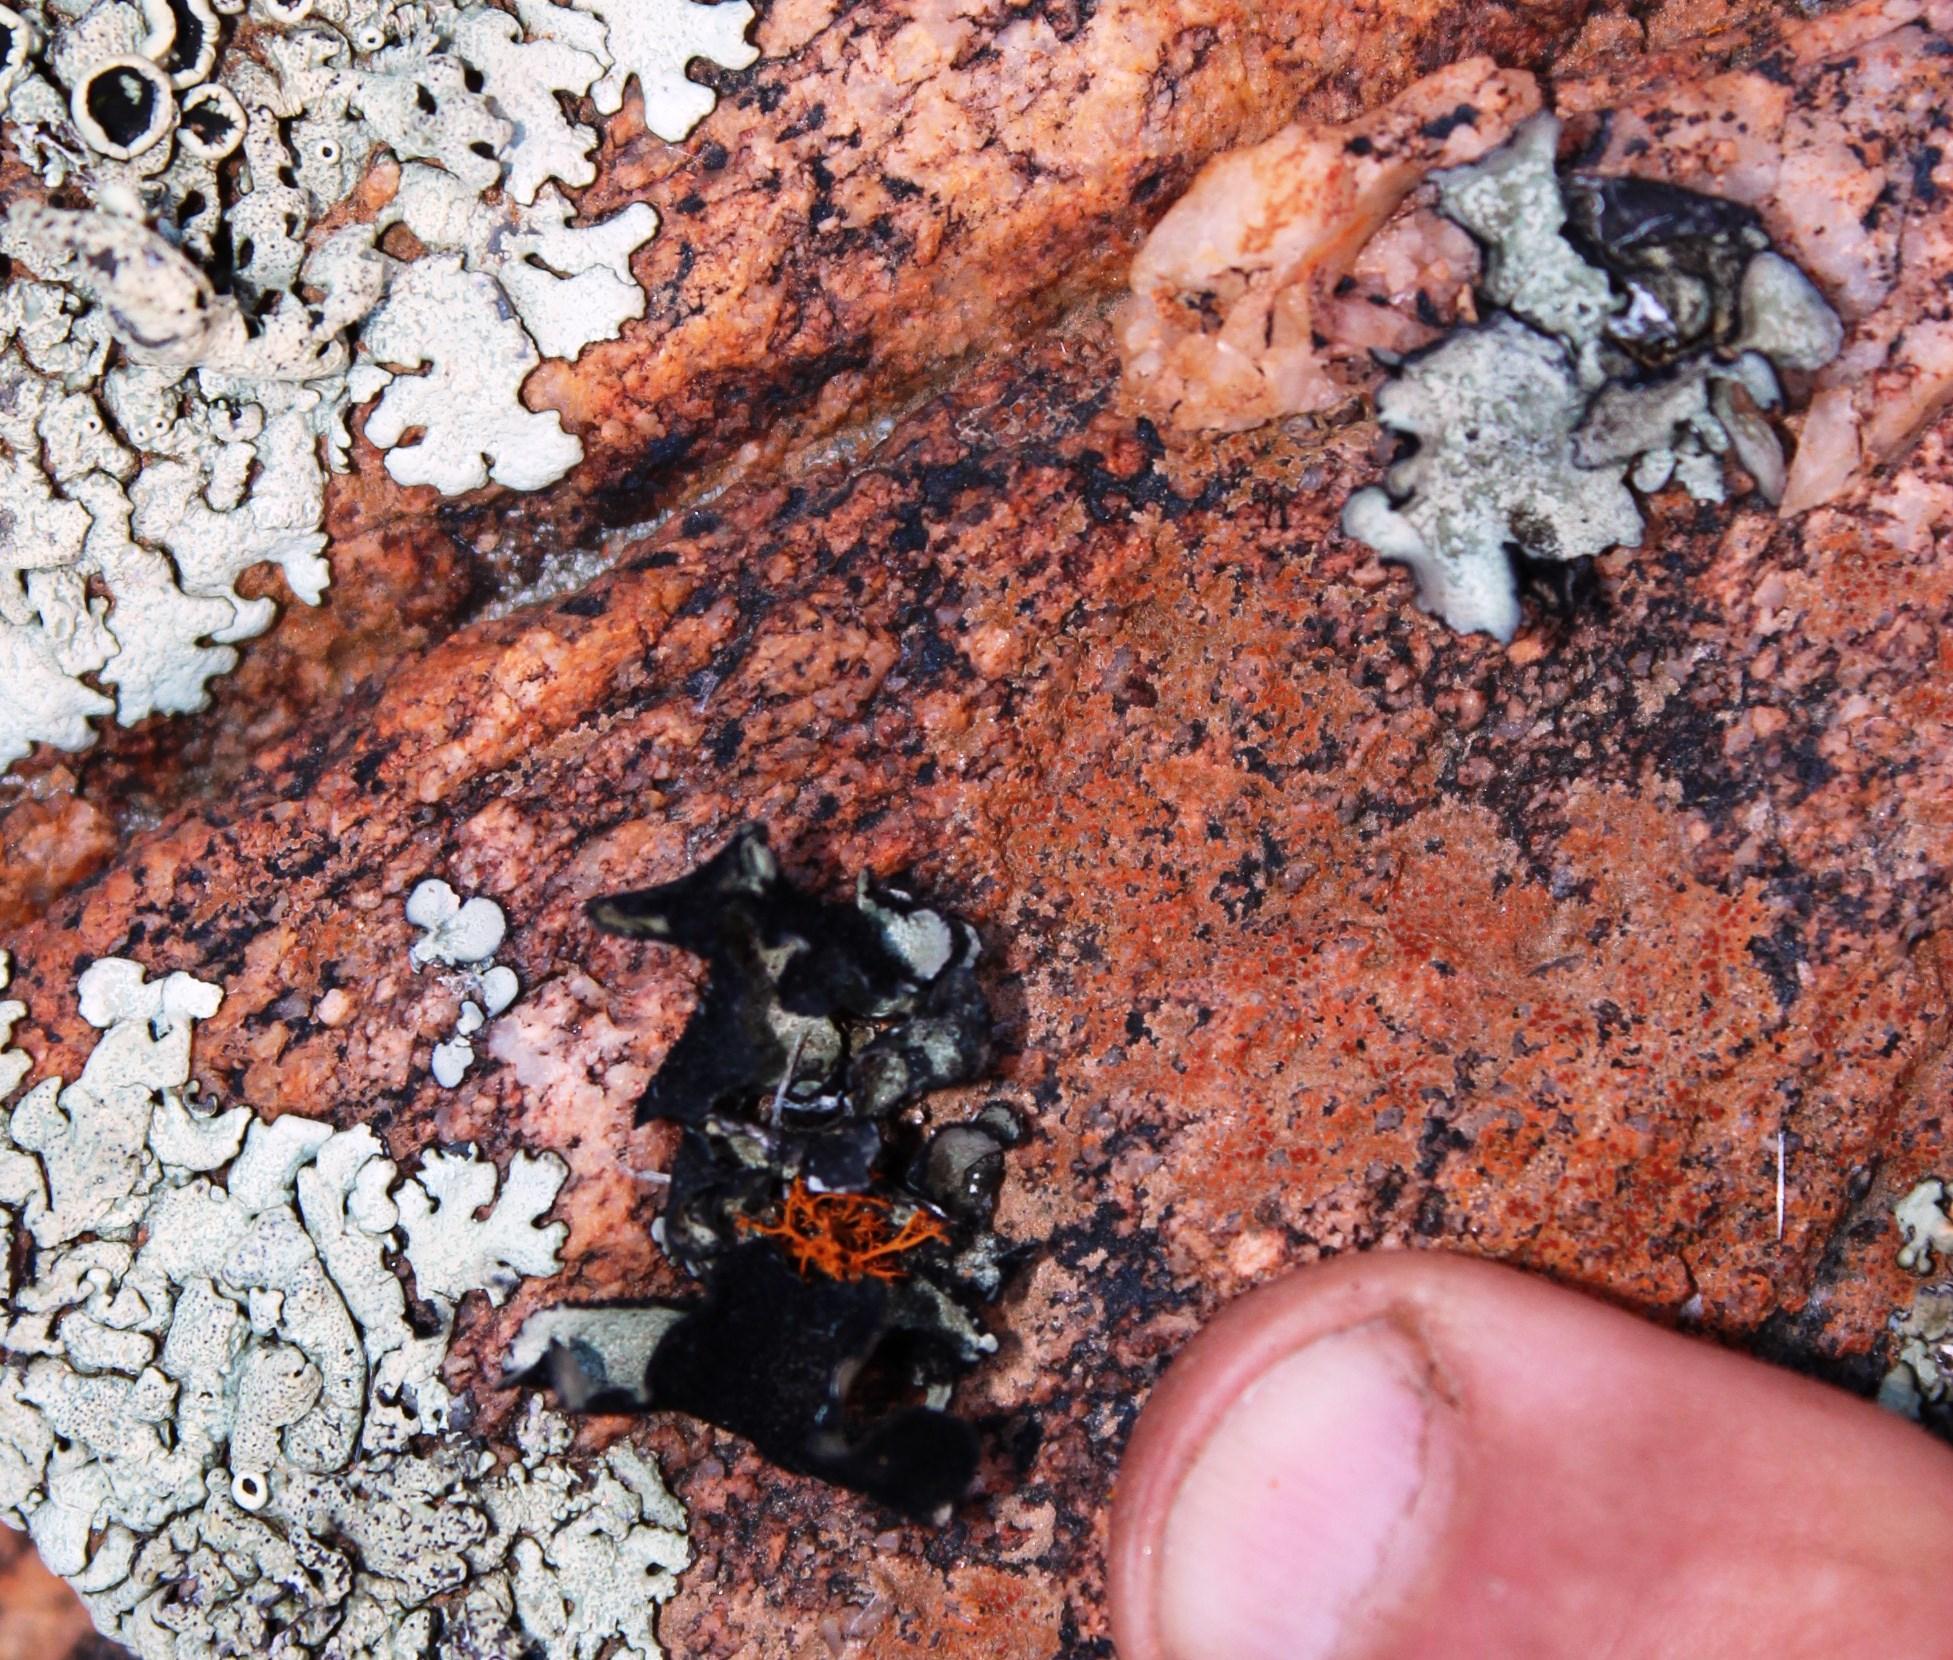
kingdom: Fungi
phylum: Ascomycota
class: Lecanoromycetes
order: Lecanorales
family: Parmeliaceae
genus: Xanthoparmelia
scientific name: Xanthoparmelia hottentotta
